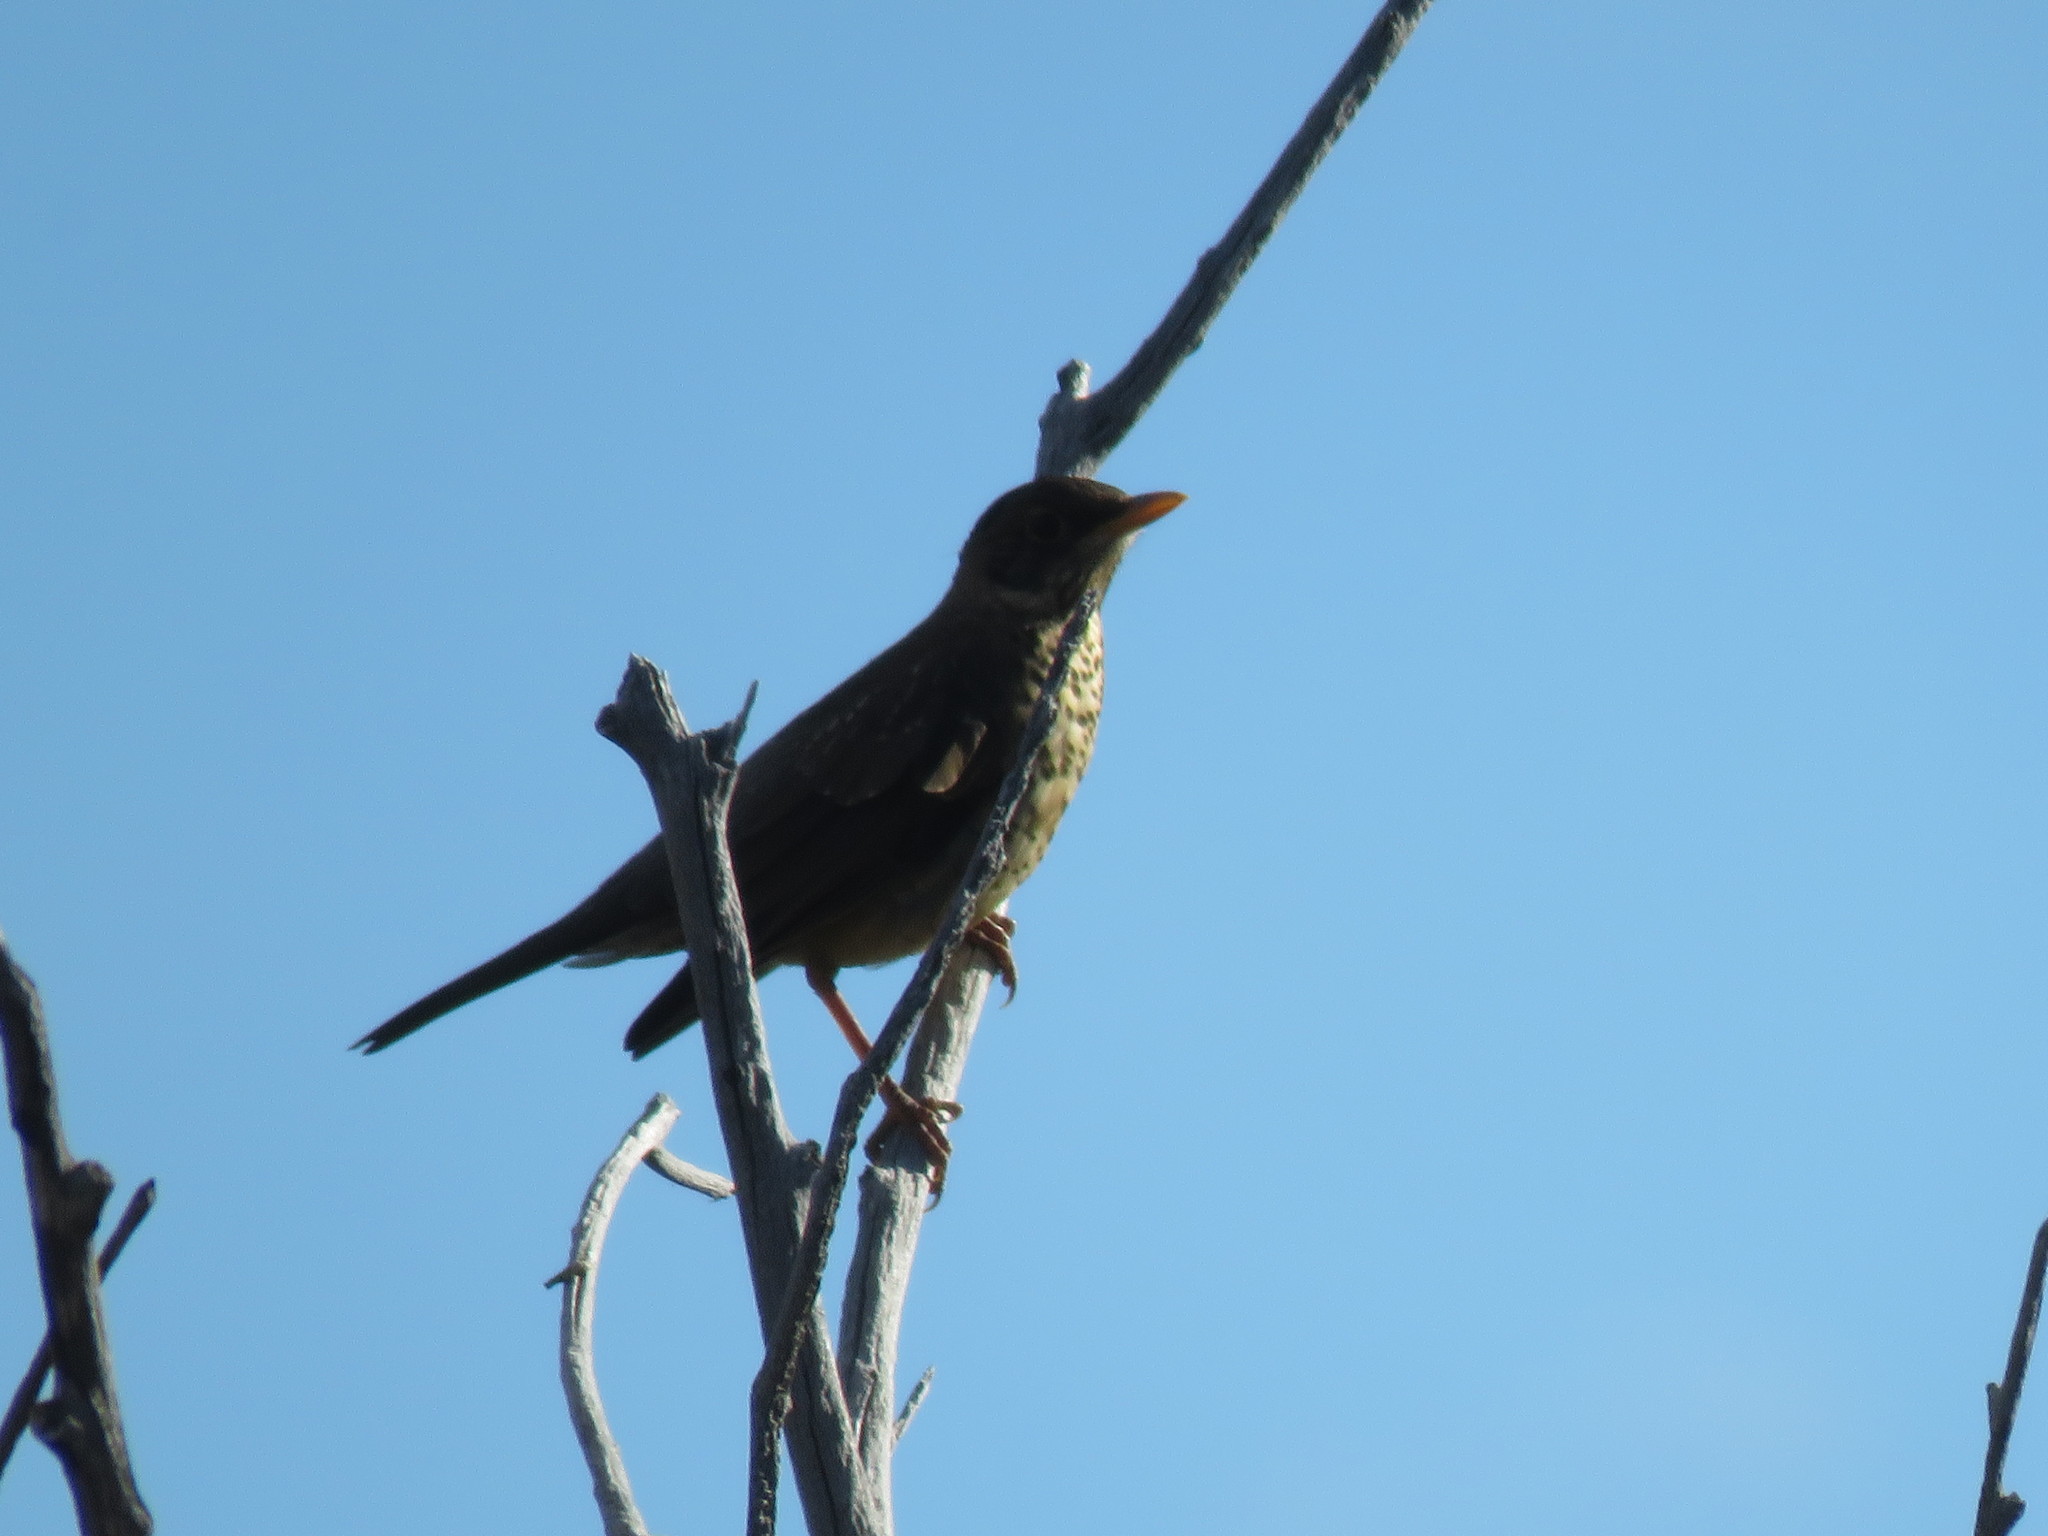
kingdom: Animalia
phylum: Chordata
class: Aves
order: Passeriformes
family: Turdidae
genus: Turdus
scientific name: Turdus falcklandii
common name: Austral thrush
